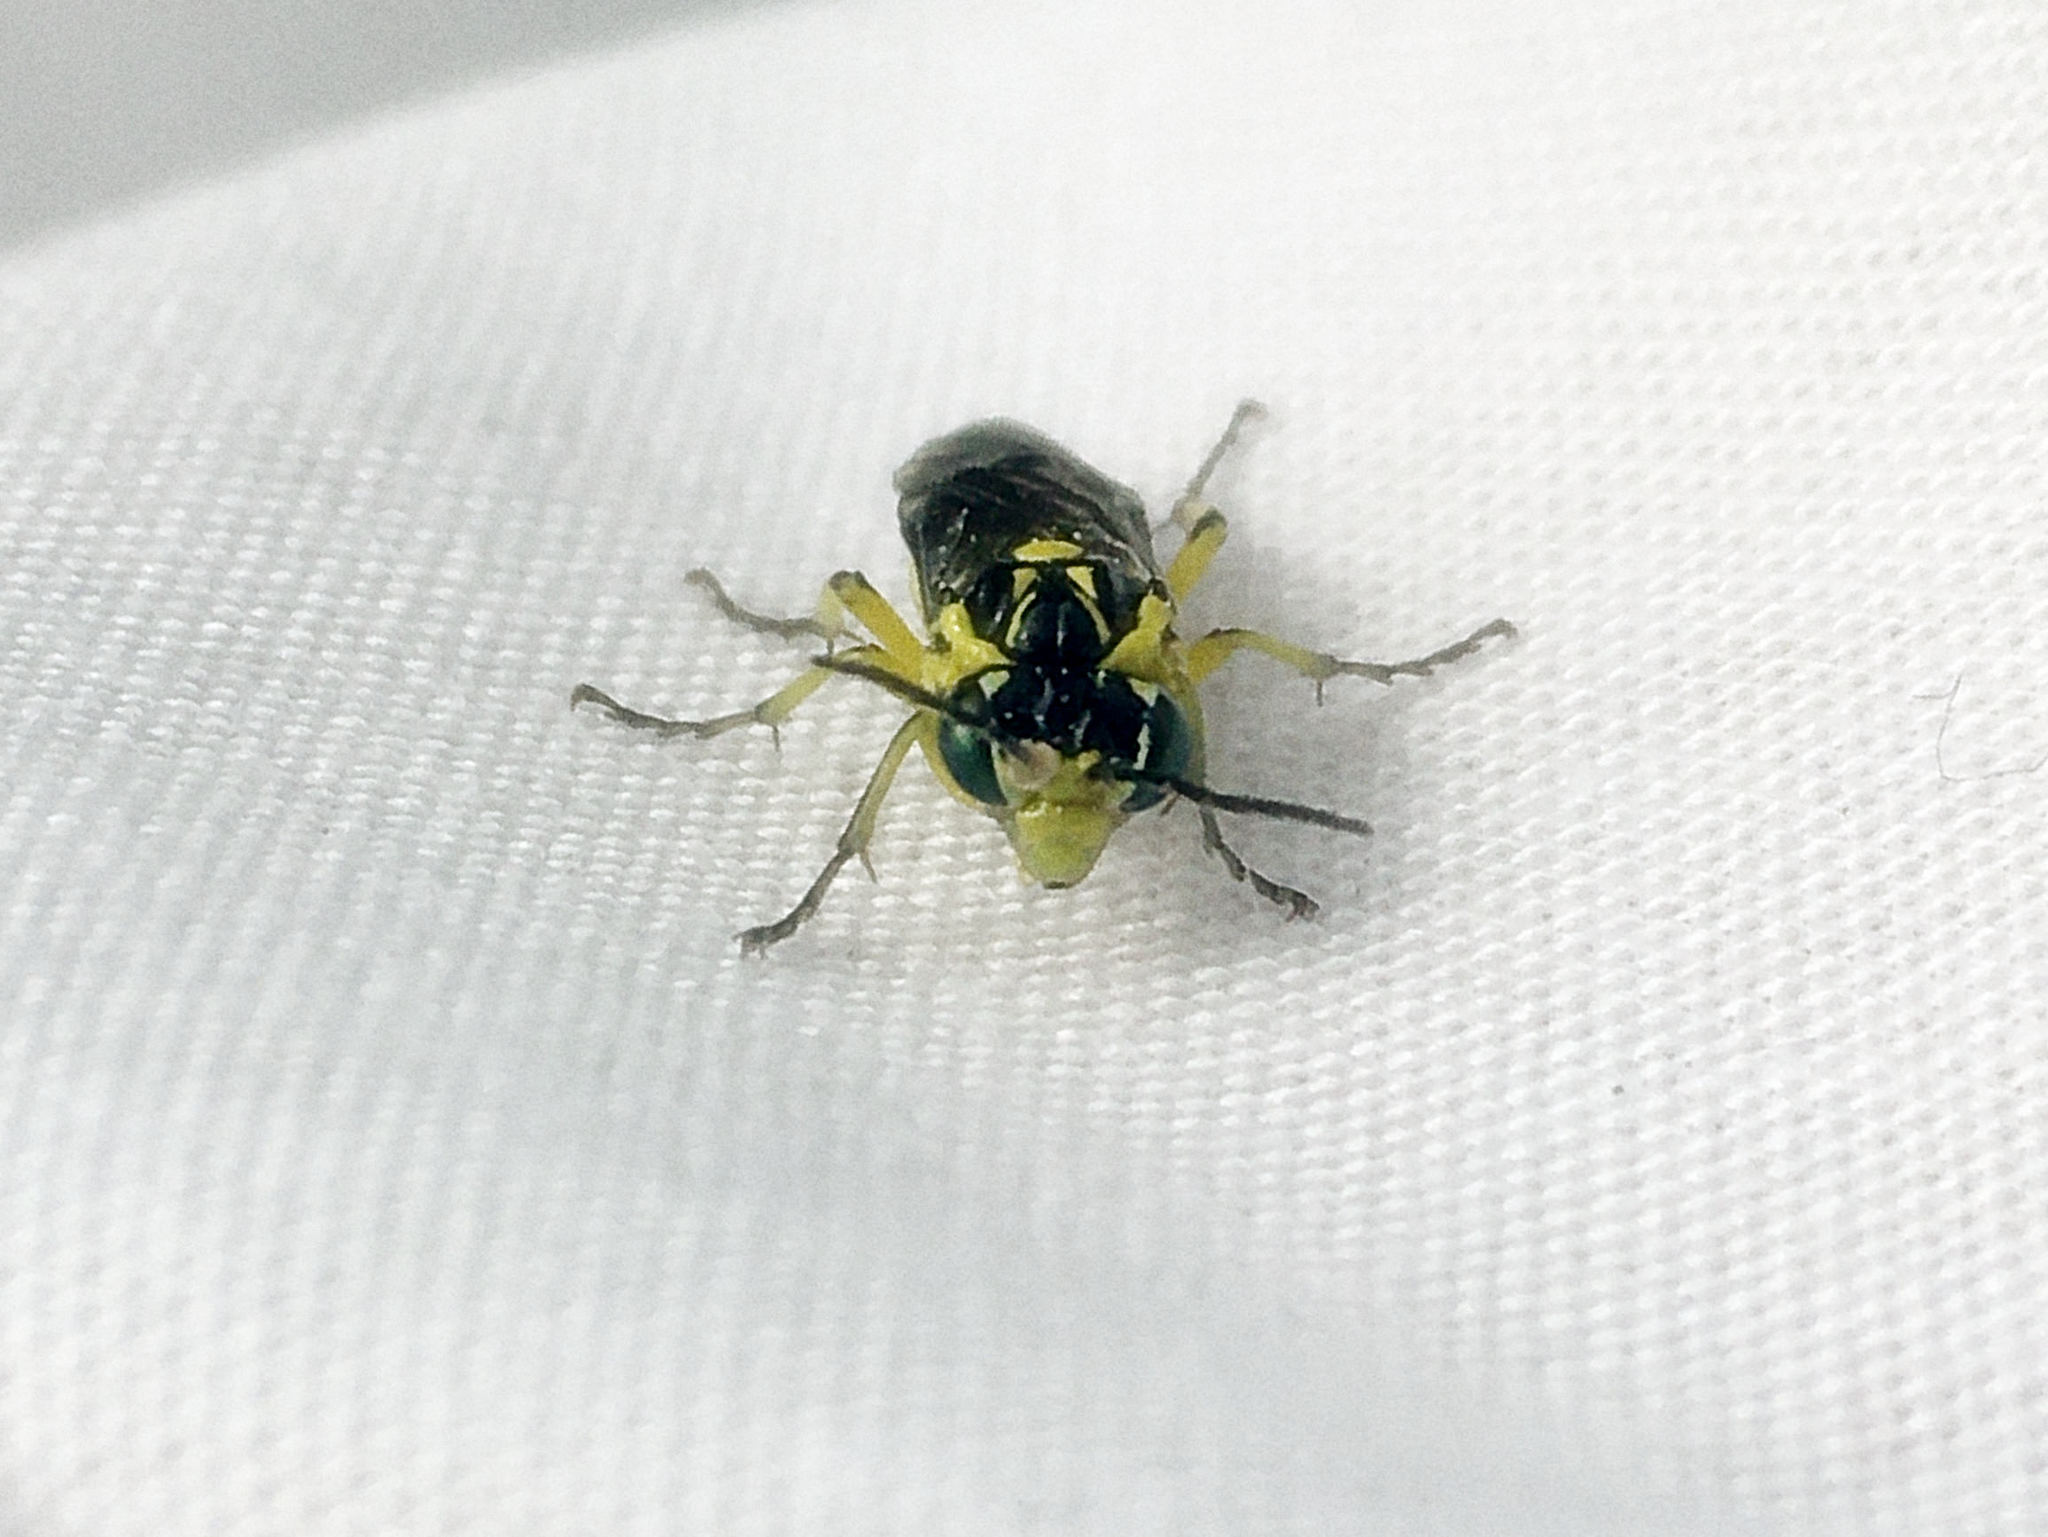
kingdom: Animalia
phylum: Arthropoda
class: Insecta
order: Hymenoptera
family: Tenthredinidae
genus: Rhogogaster
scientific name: Rhogogaster picta
